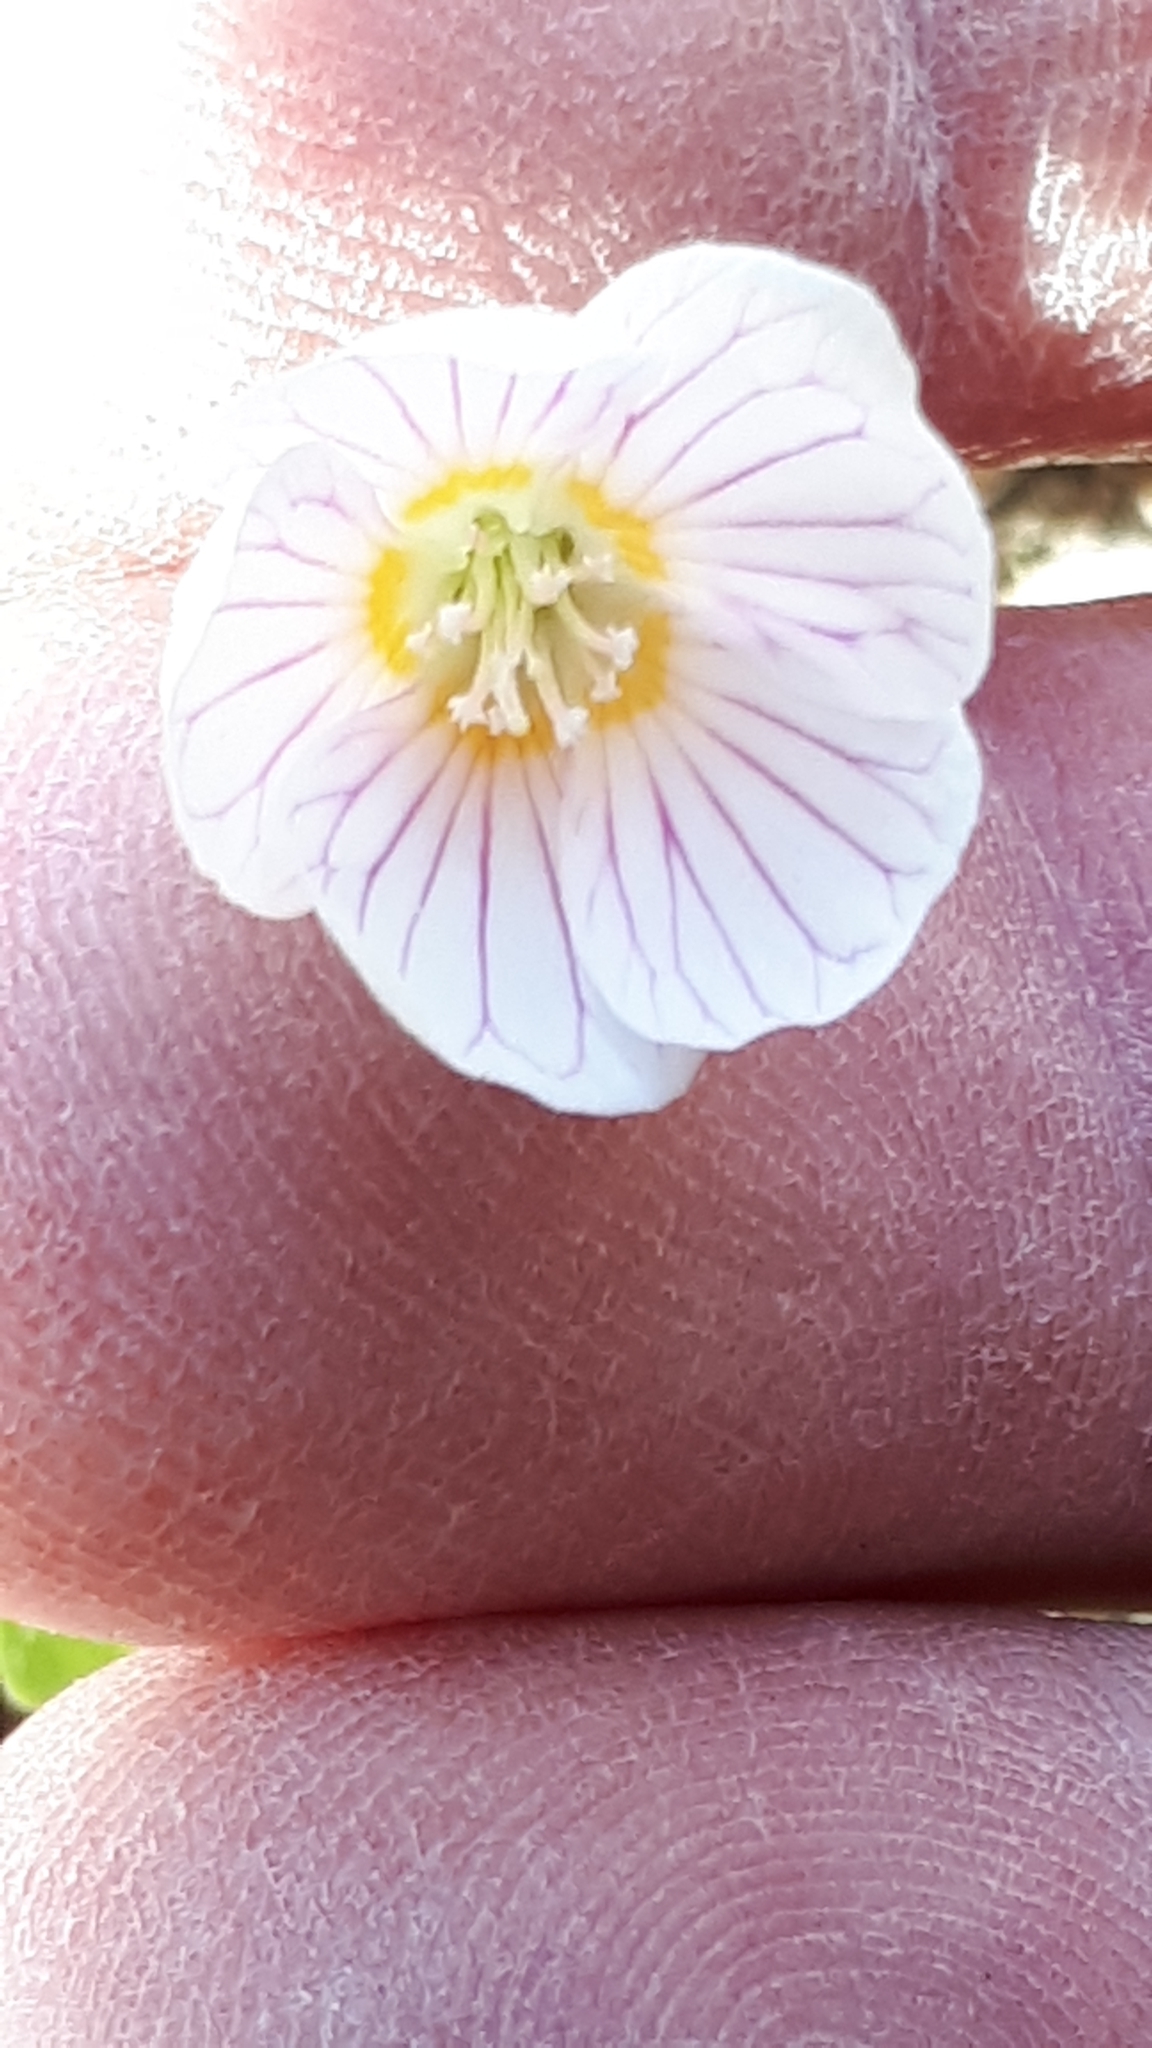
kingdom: Plantae
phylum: Tracheophyta
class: Magnoliopsida
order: Oxalidales
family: Oxalidaceae
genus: Oxalis
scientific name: Oxalis acetosella
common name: Wood-sorrel
